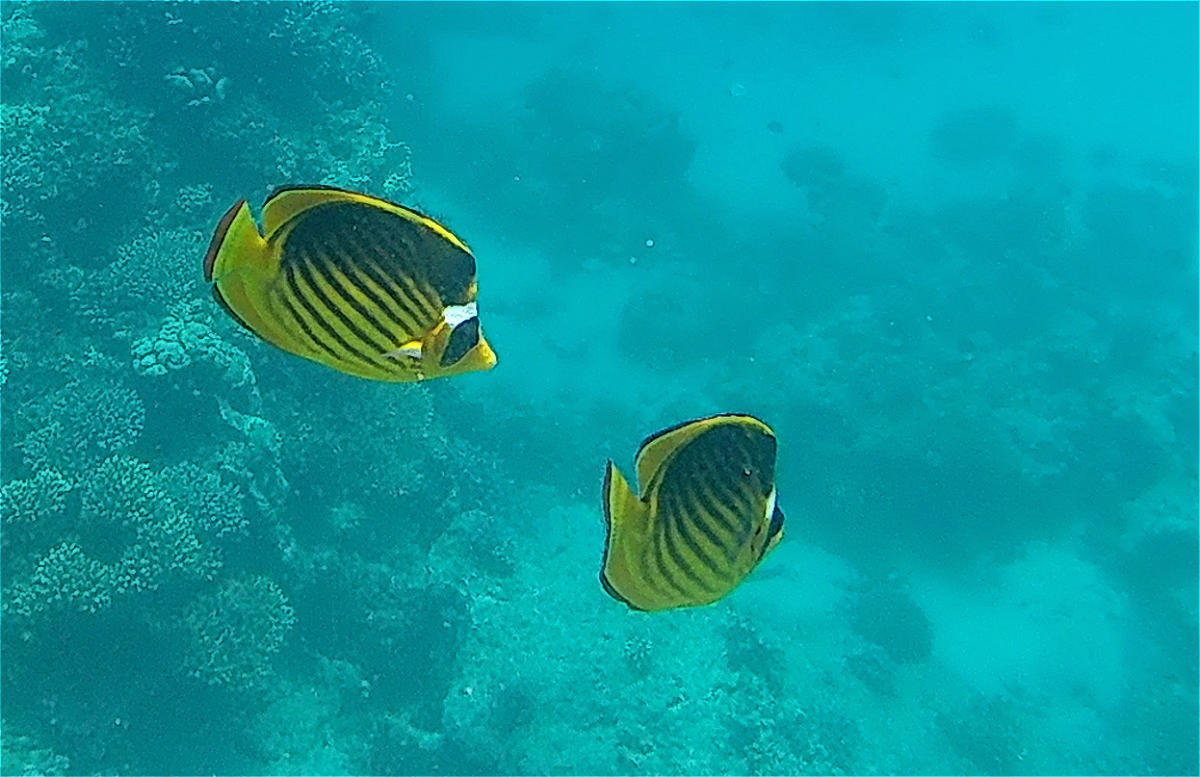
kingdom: Animalia
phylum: Chordata
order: Perciformes
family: Chaetodontidae
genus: Chaetodon
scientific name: Chaetodon fasciatus
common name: Diagonal butterflyfish
